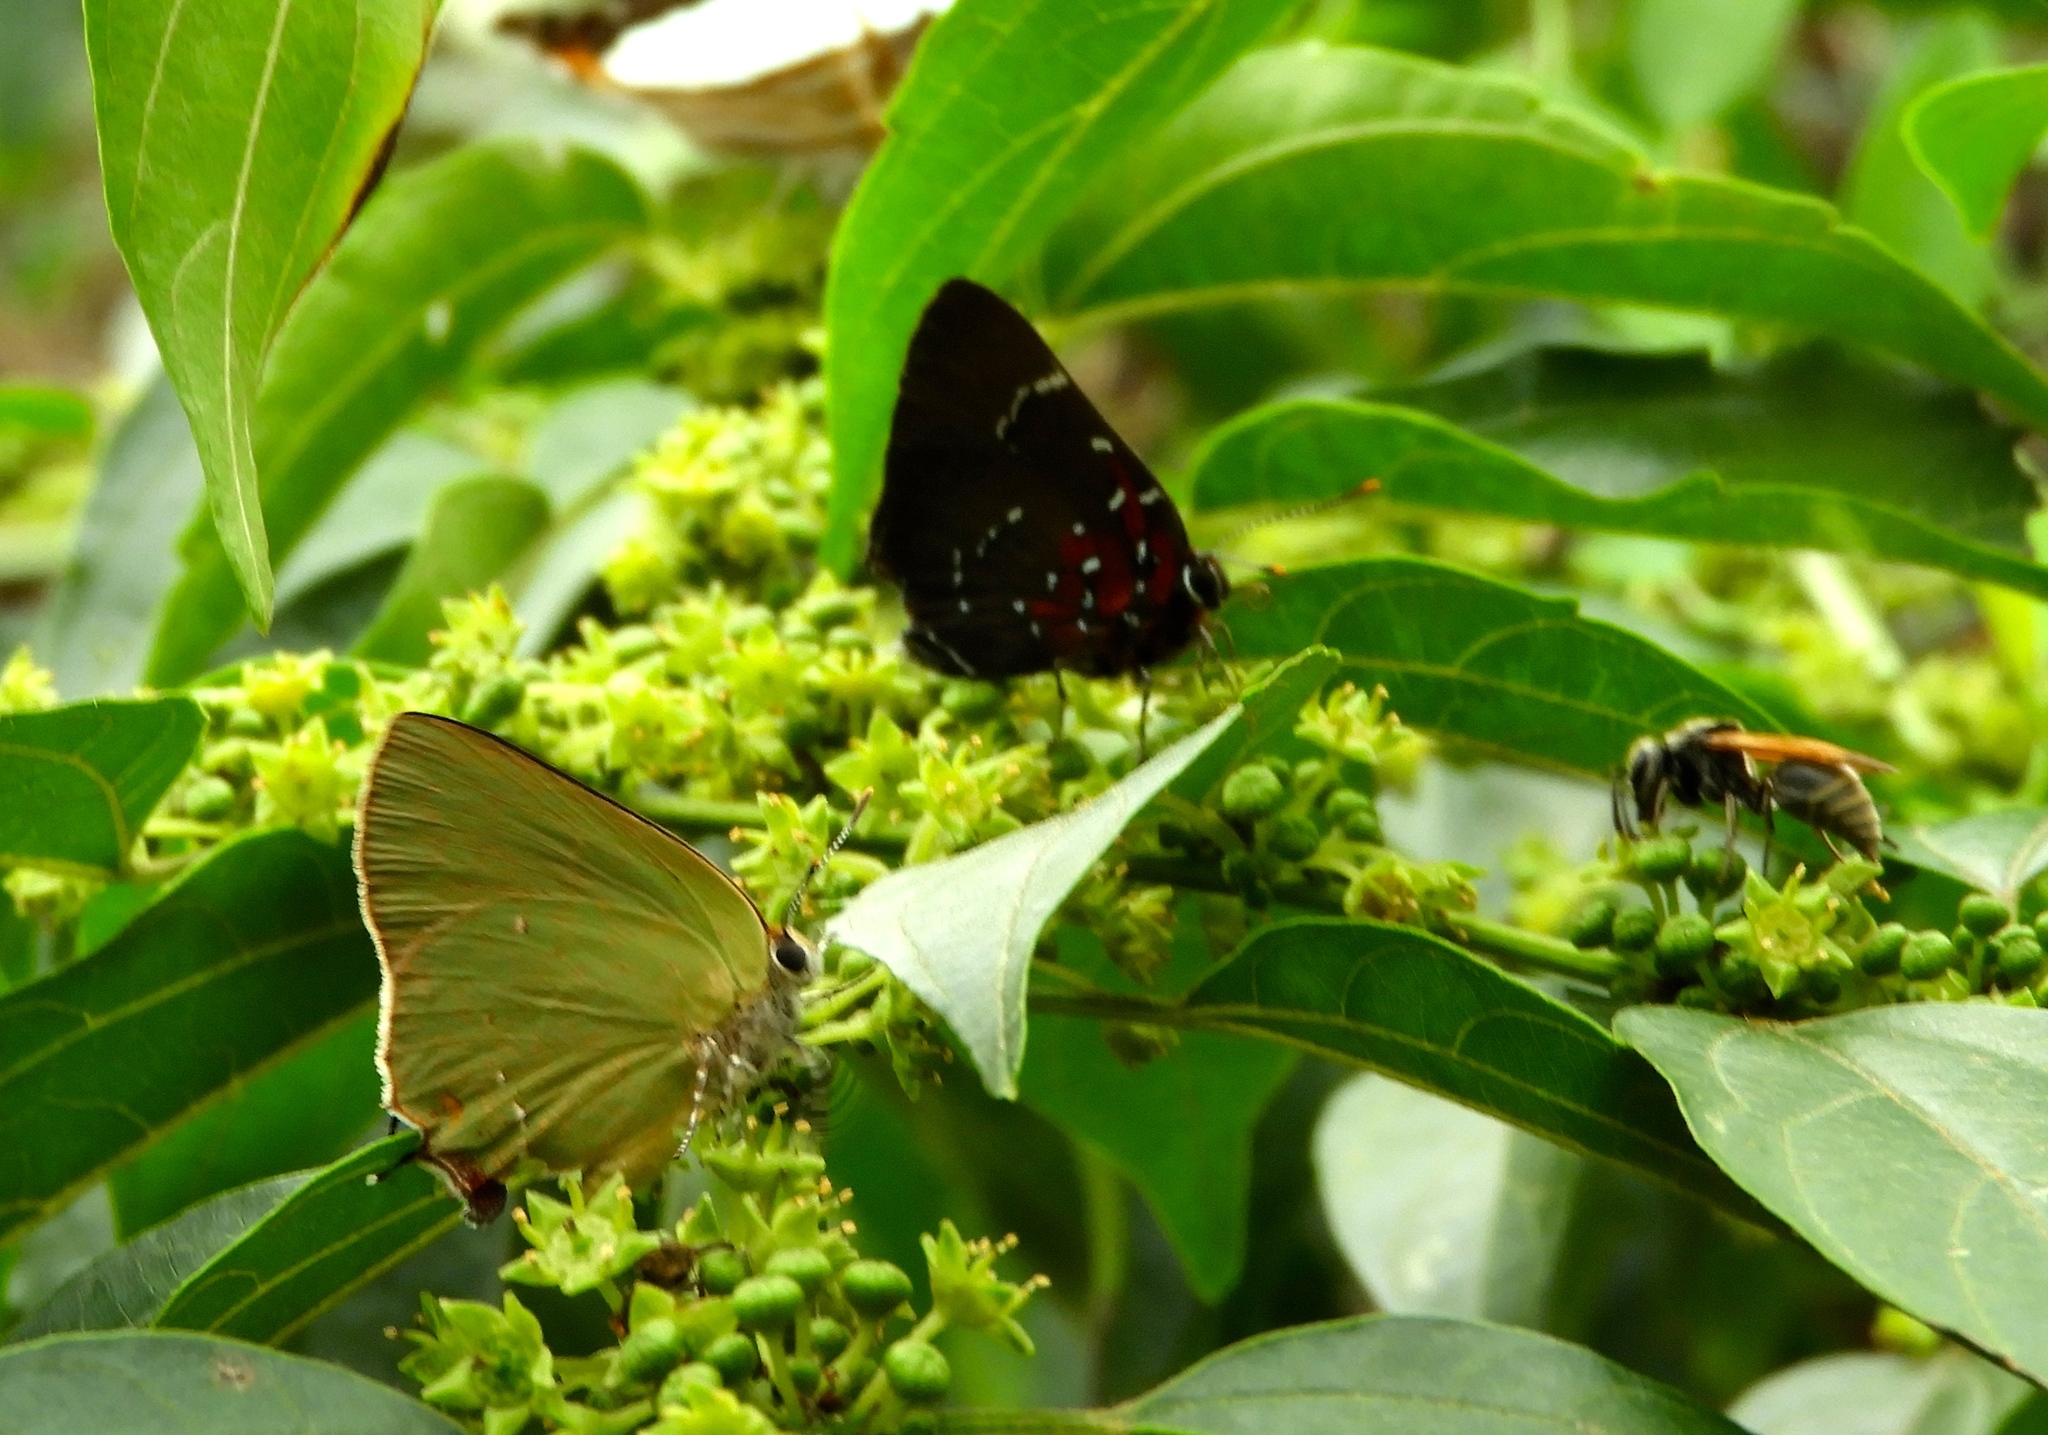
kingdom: Animalia
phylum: Arthropoda
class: Insecta
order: Lepidoptera
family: Lycaenidae
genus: Cyanophrys
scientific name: Cyanophrys
